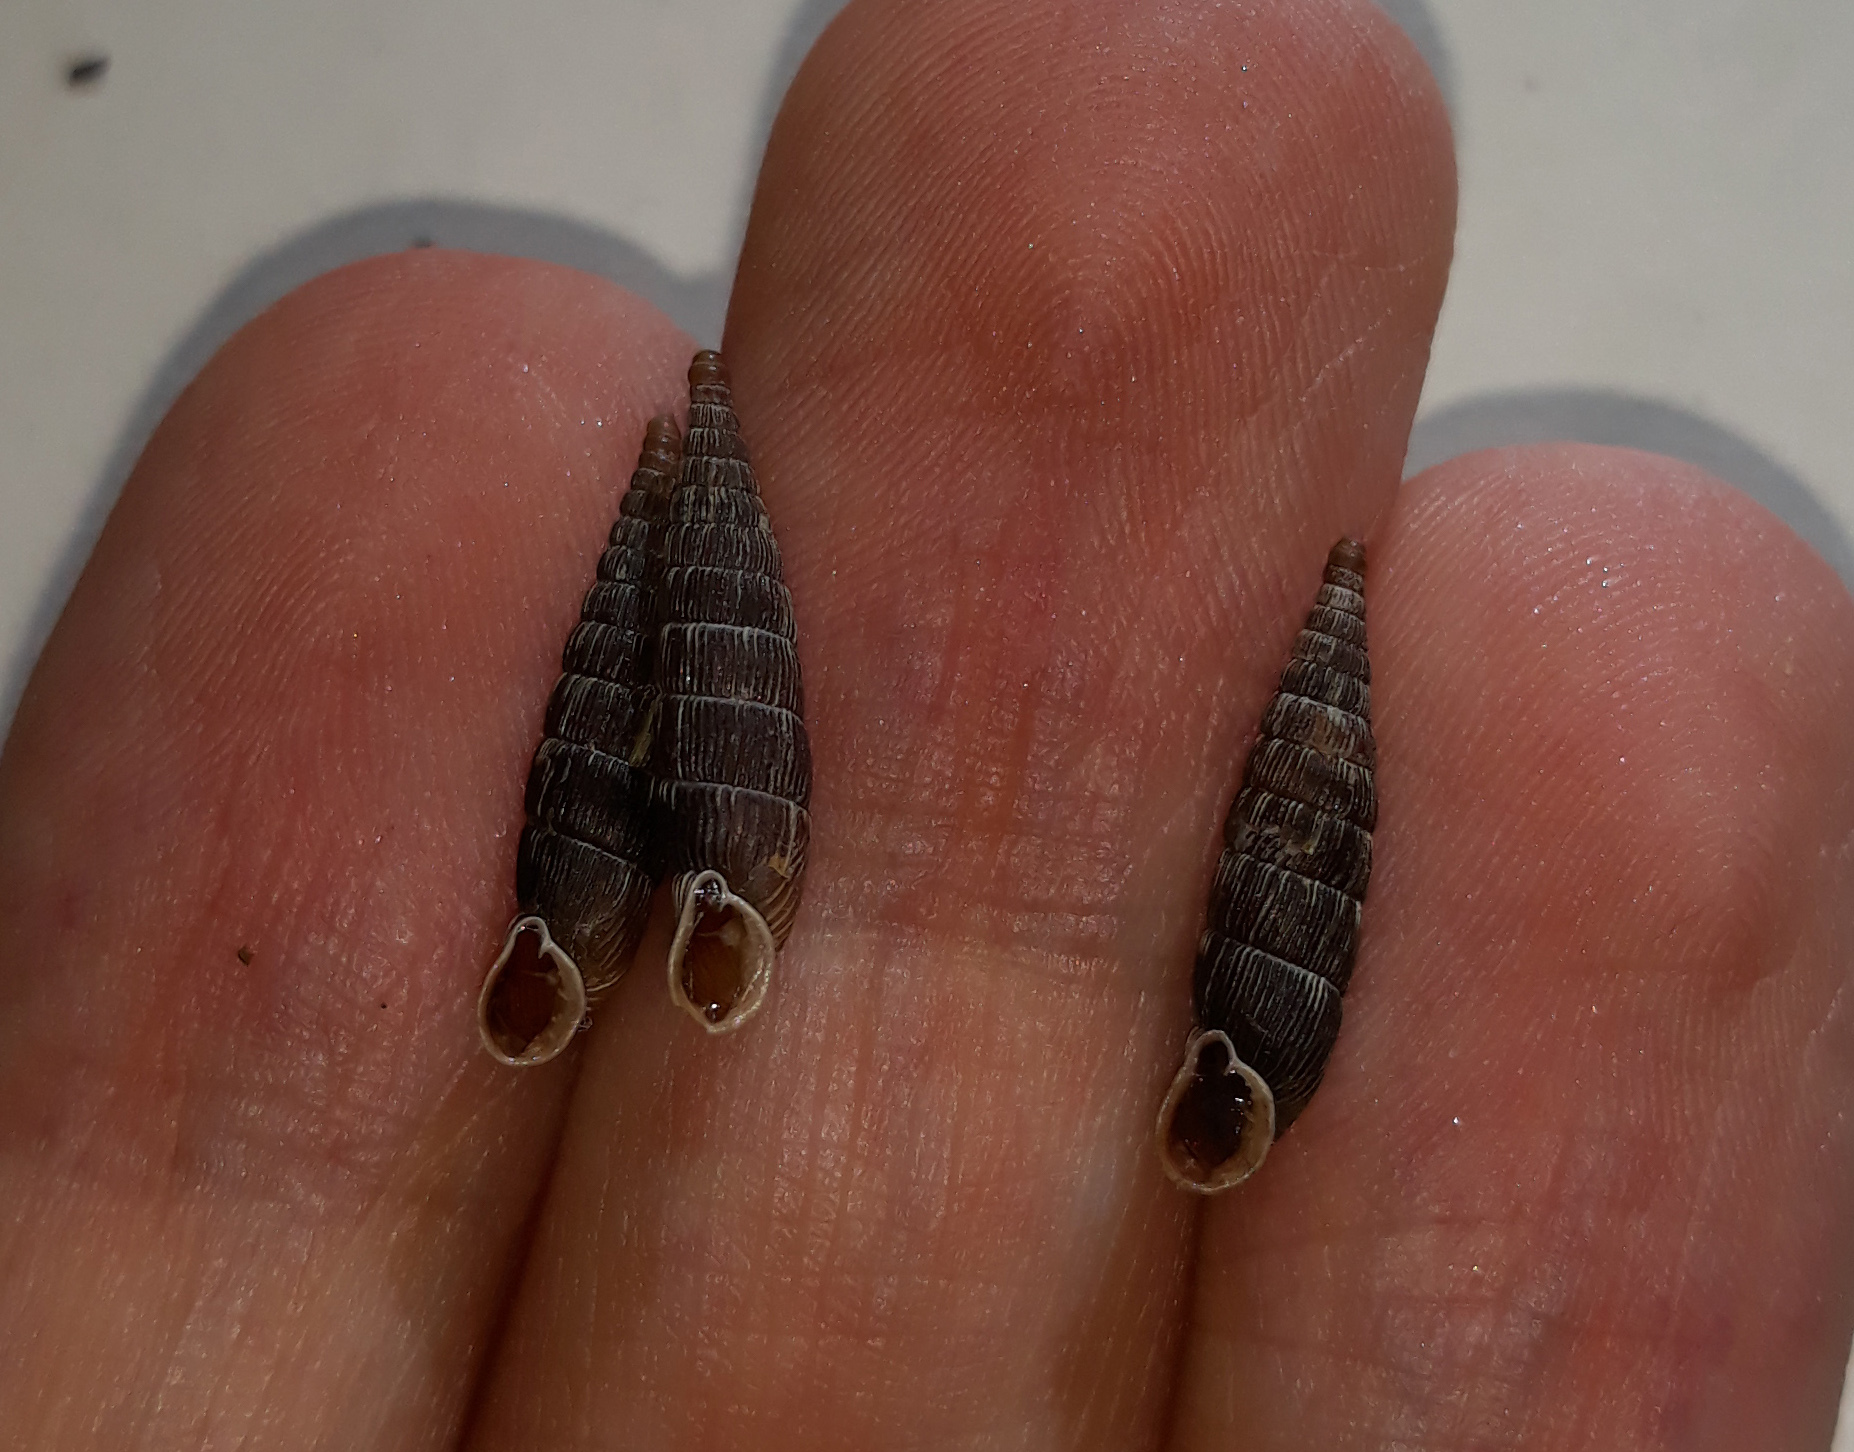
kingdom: Animalia
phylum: Mollusca
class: Gastropoda
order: Stylommatophora
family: Clausiliidae
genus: Laciniaria
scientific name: Laciniaria plicata
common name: Single-lipped door snail
